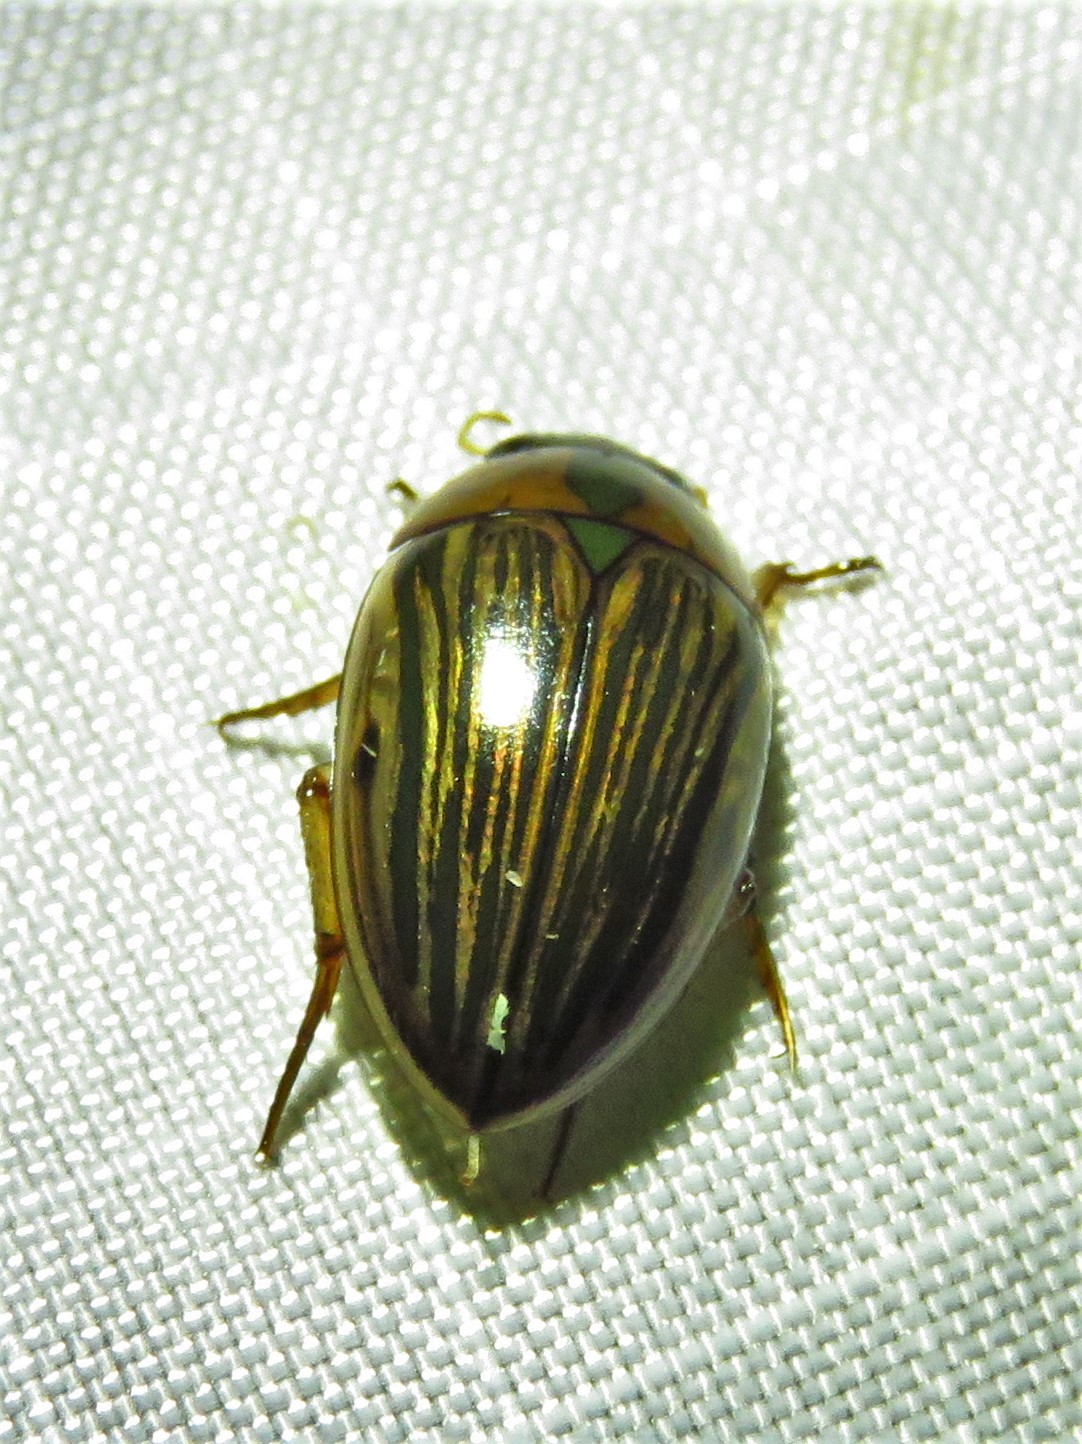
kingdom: Animalia
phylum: Arthropoda
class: Insecta
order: Coleoptera
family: Hydrophilidae
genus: Tropisternus
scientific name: Tropisternus collaris
